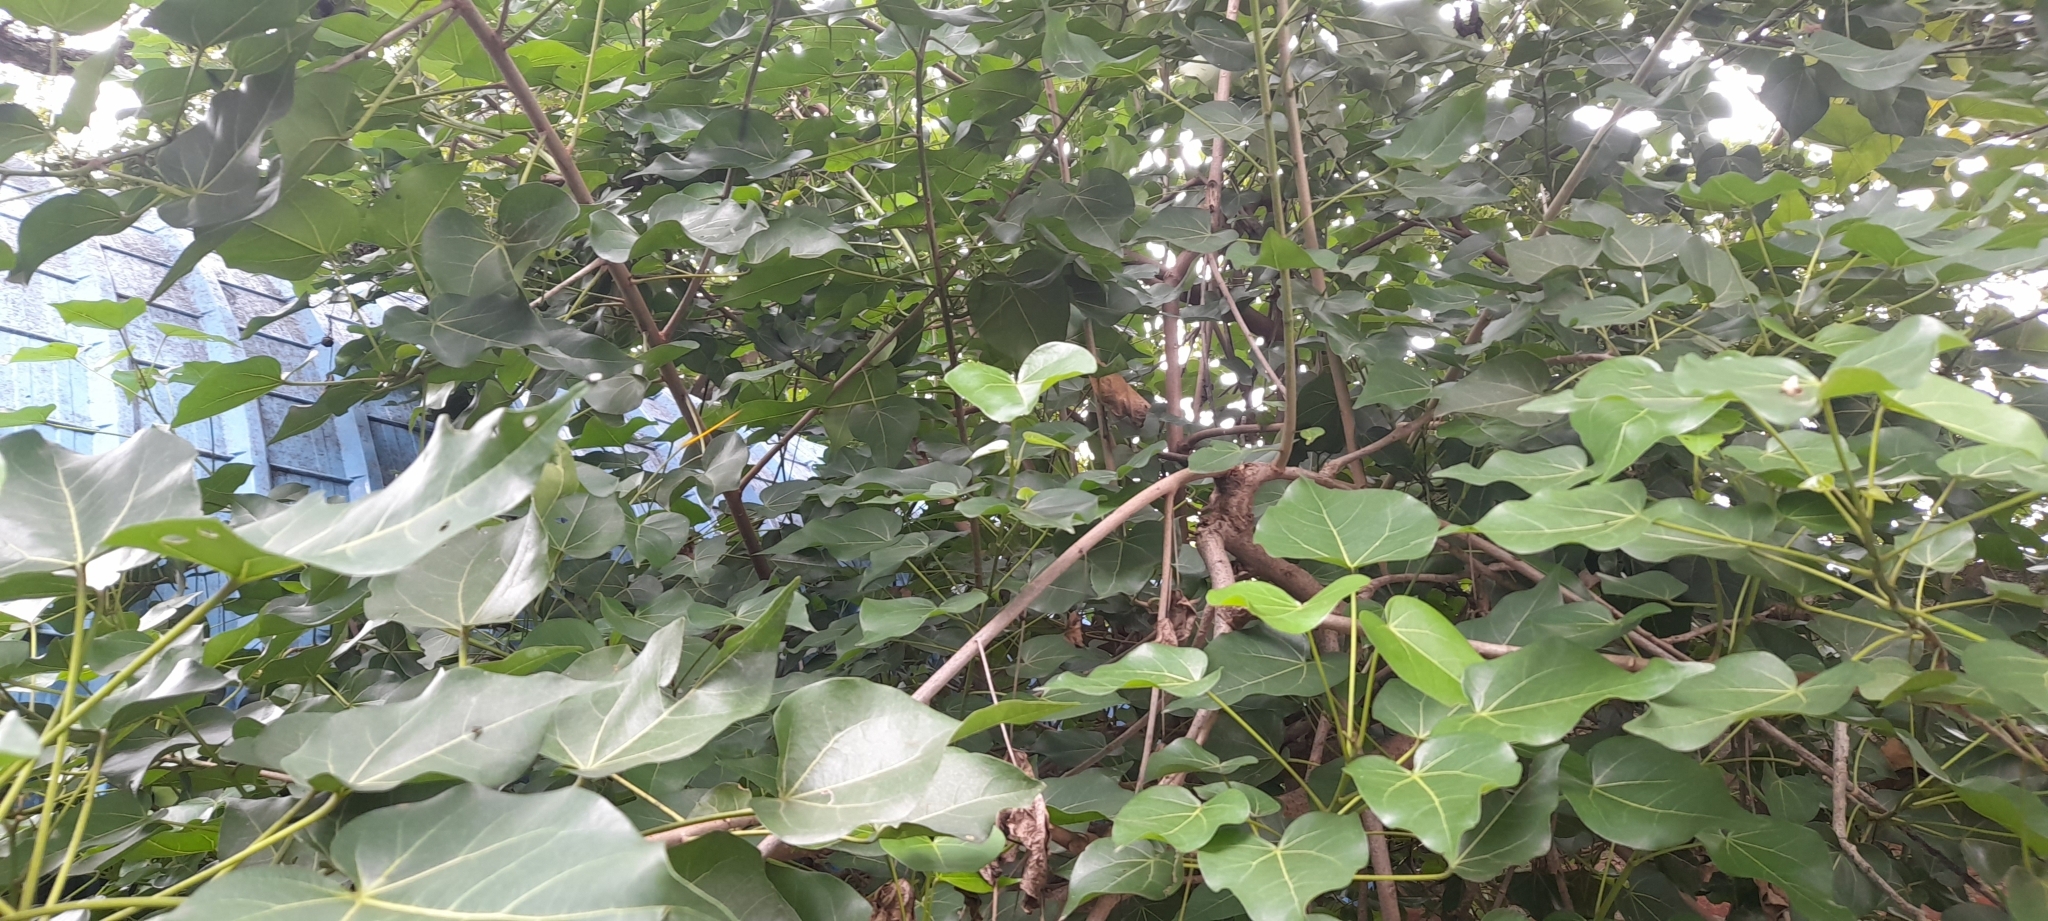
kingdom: Plantae
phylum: Tracheophyta
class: Magnoliopsida
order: Malvales
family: Malvaceae
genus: Thespesia
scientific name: Thespesia populnea
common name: Seaside mahoe
